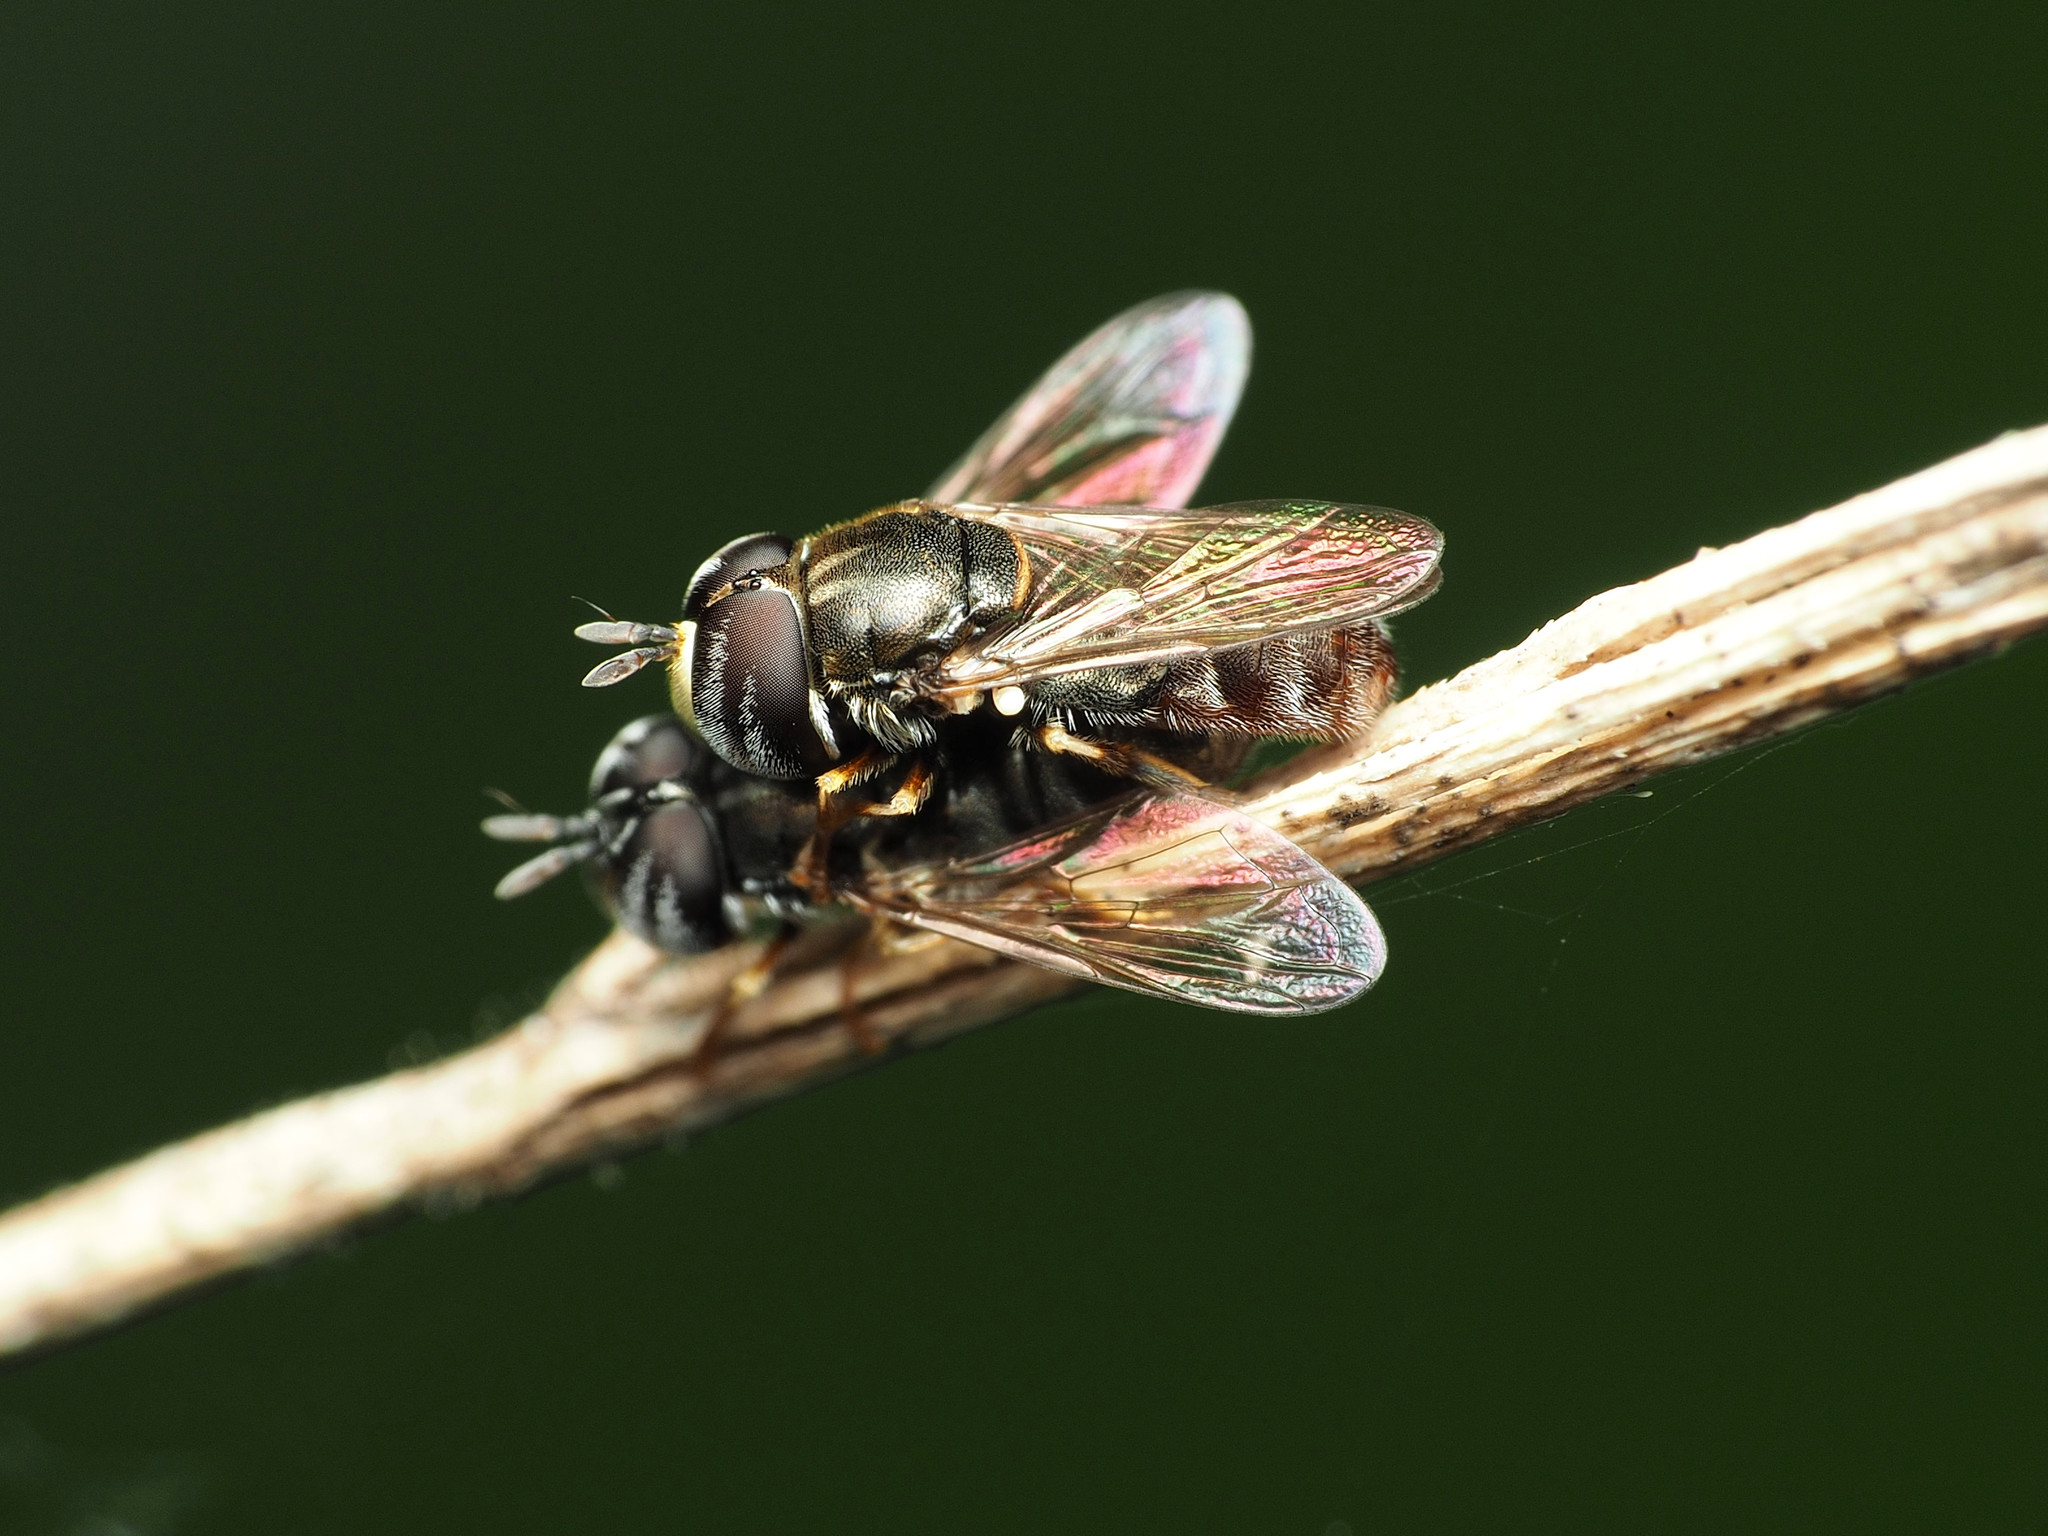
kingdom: Animalia
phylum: Arthropoda
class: Insecta
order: Diptera
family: Syrphidae
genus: Paragus
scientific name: Paragus
